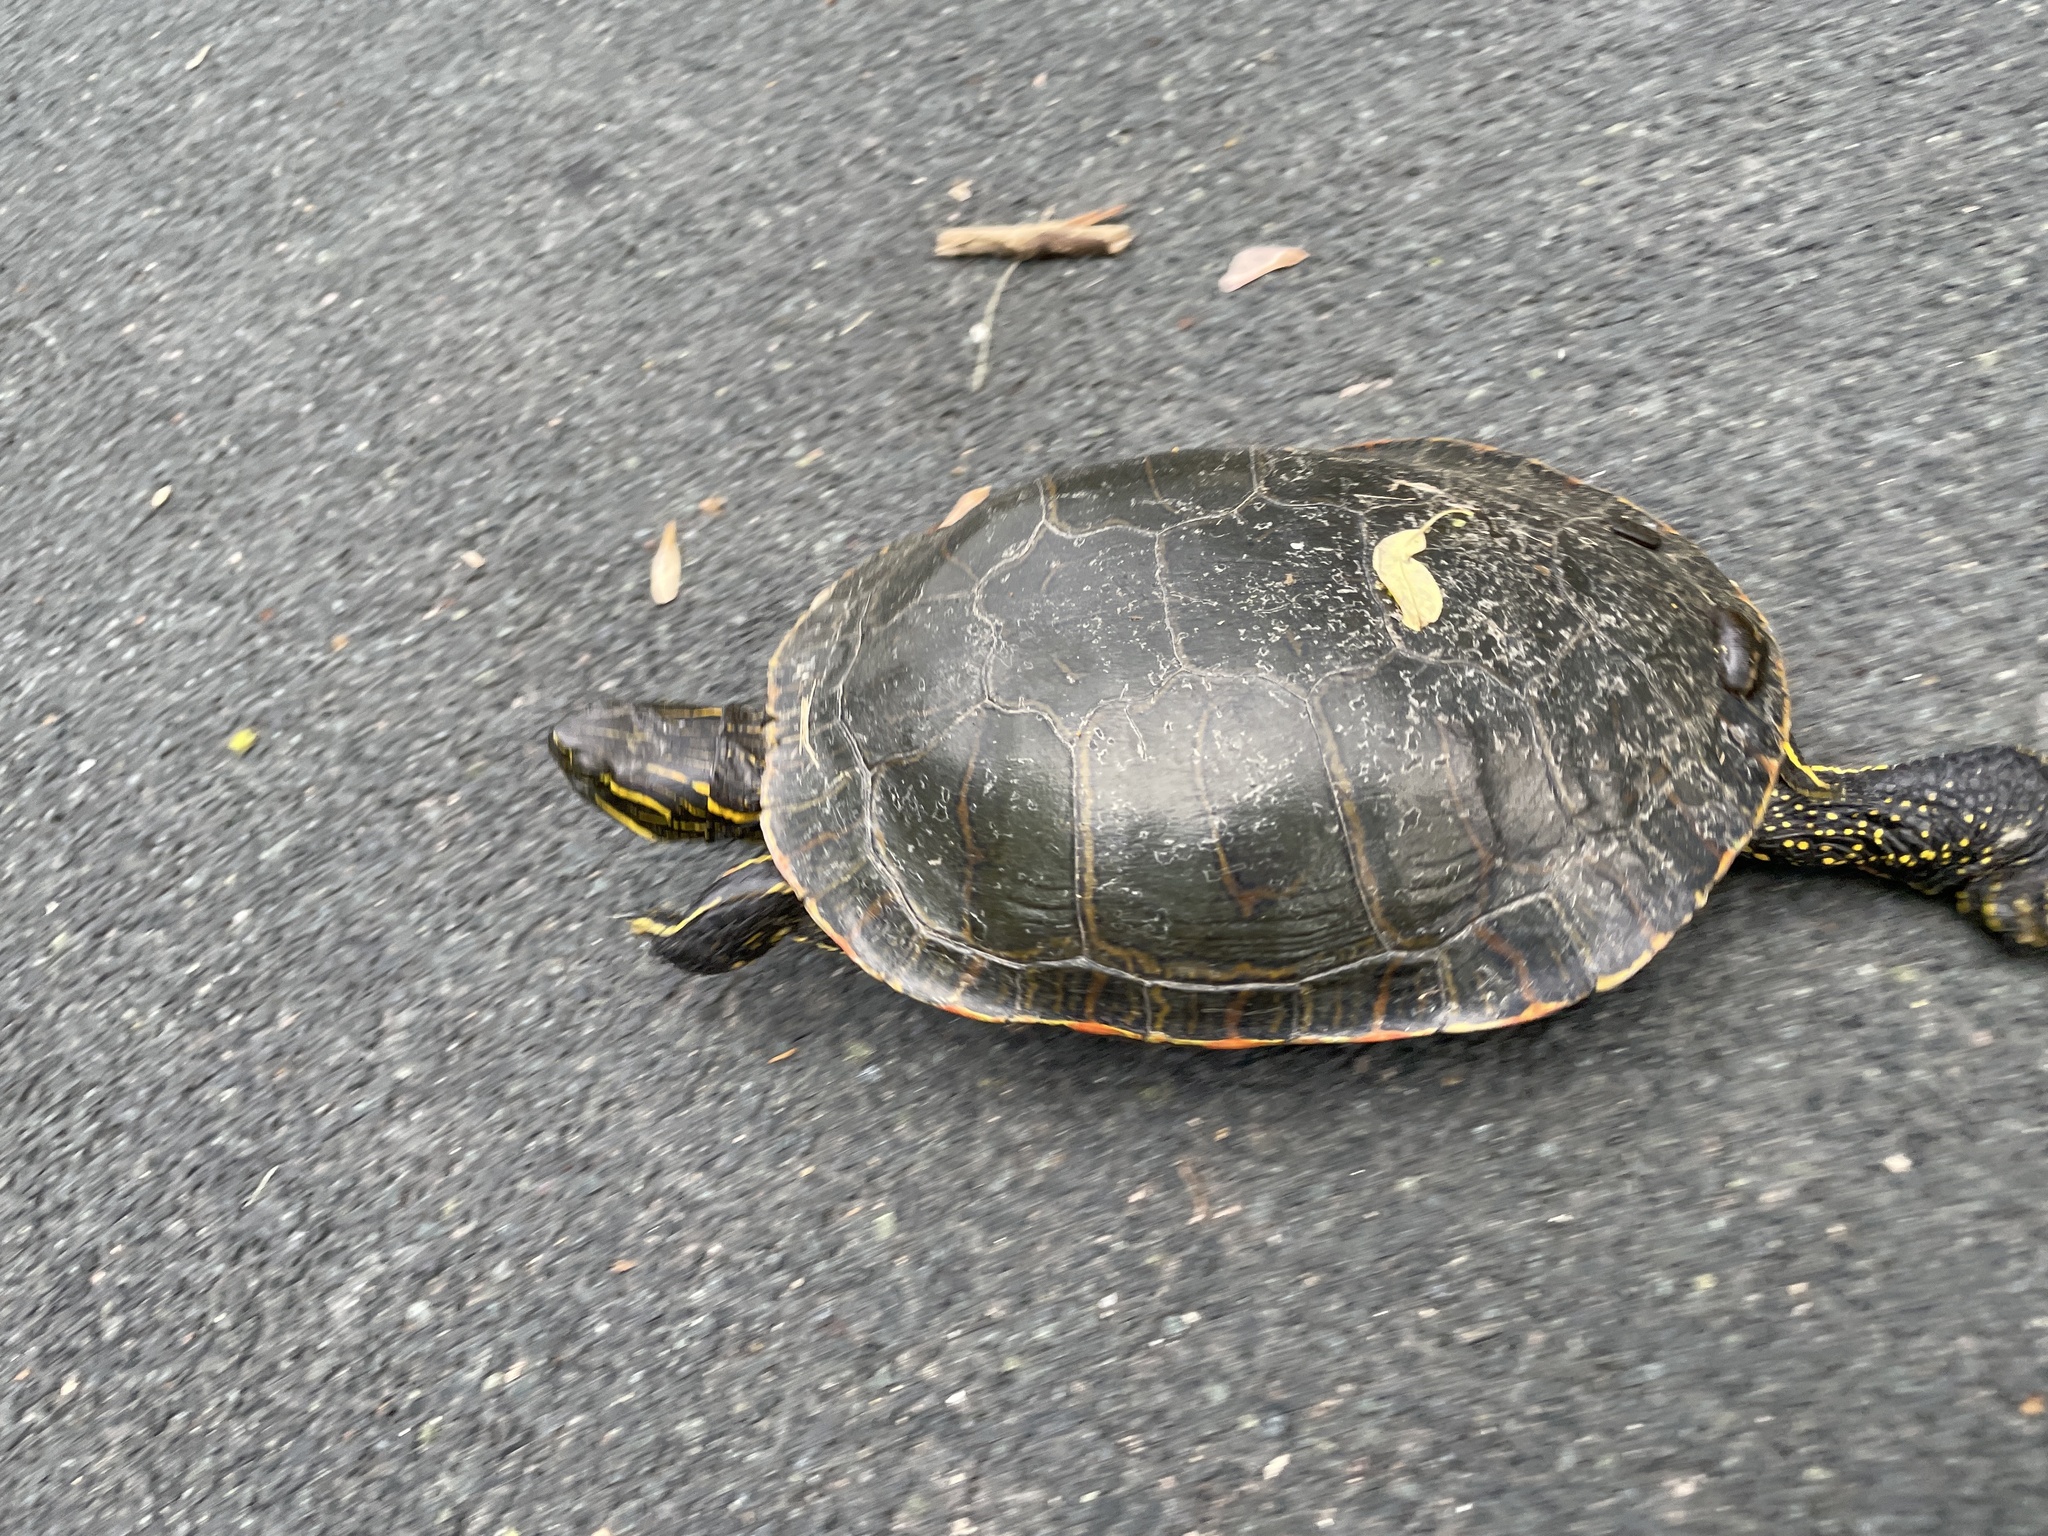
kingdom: Animalia
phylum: Chordata
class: Testudines
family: Emydidae
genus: Chrysemys
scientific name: Chrysemys picta
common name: Painted turtle
